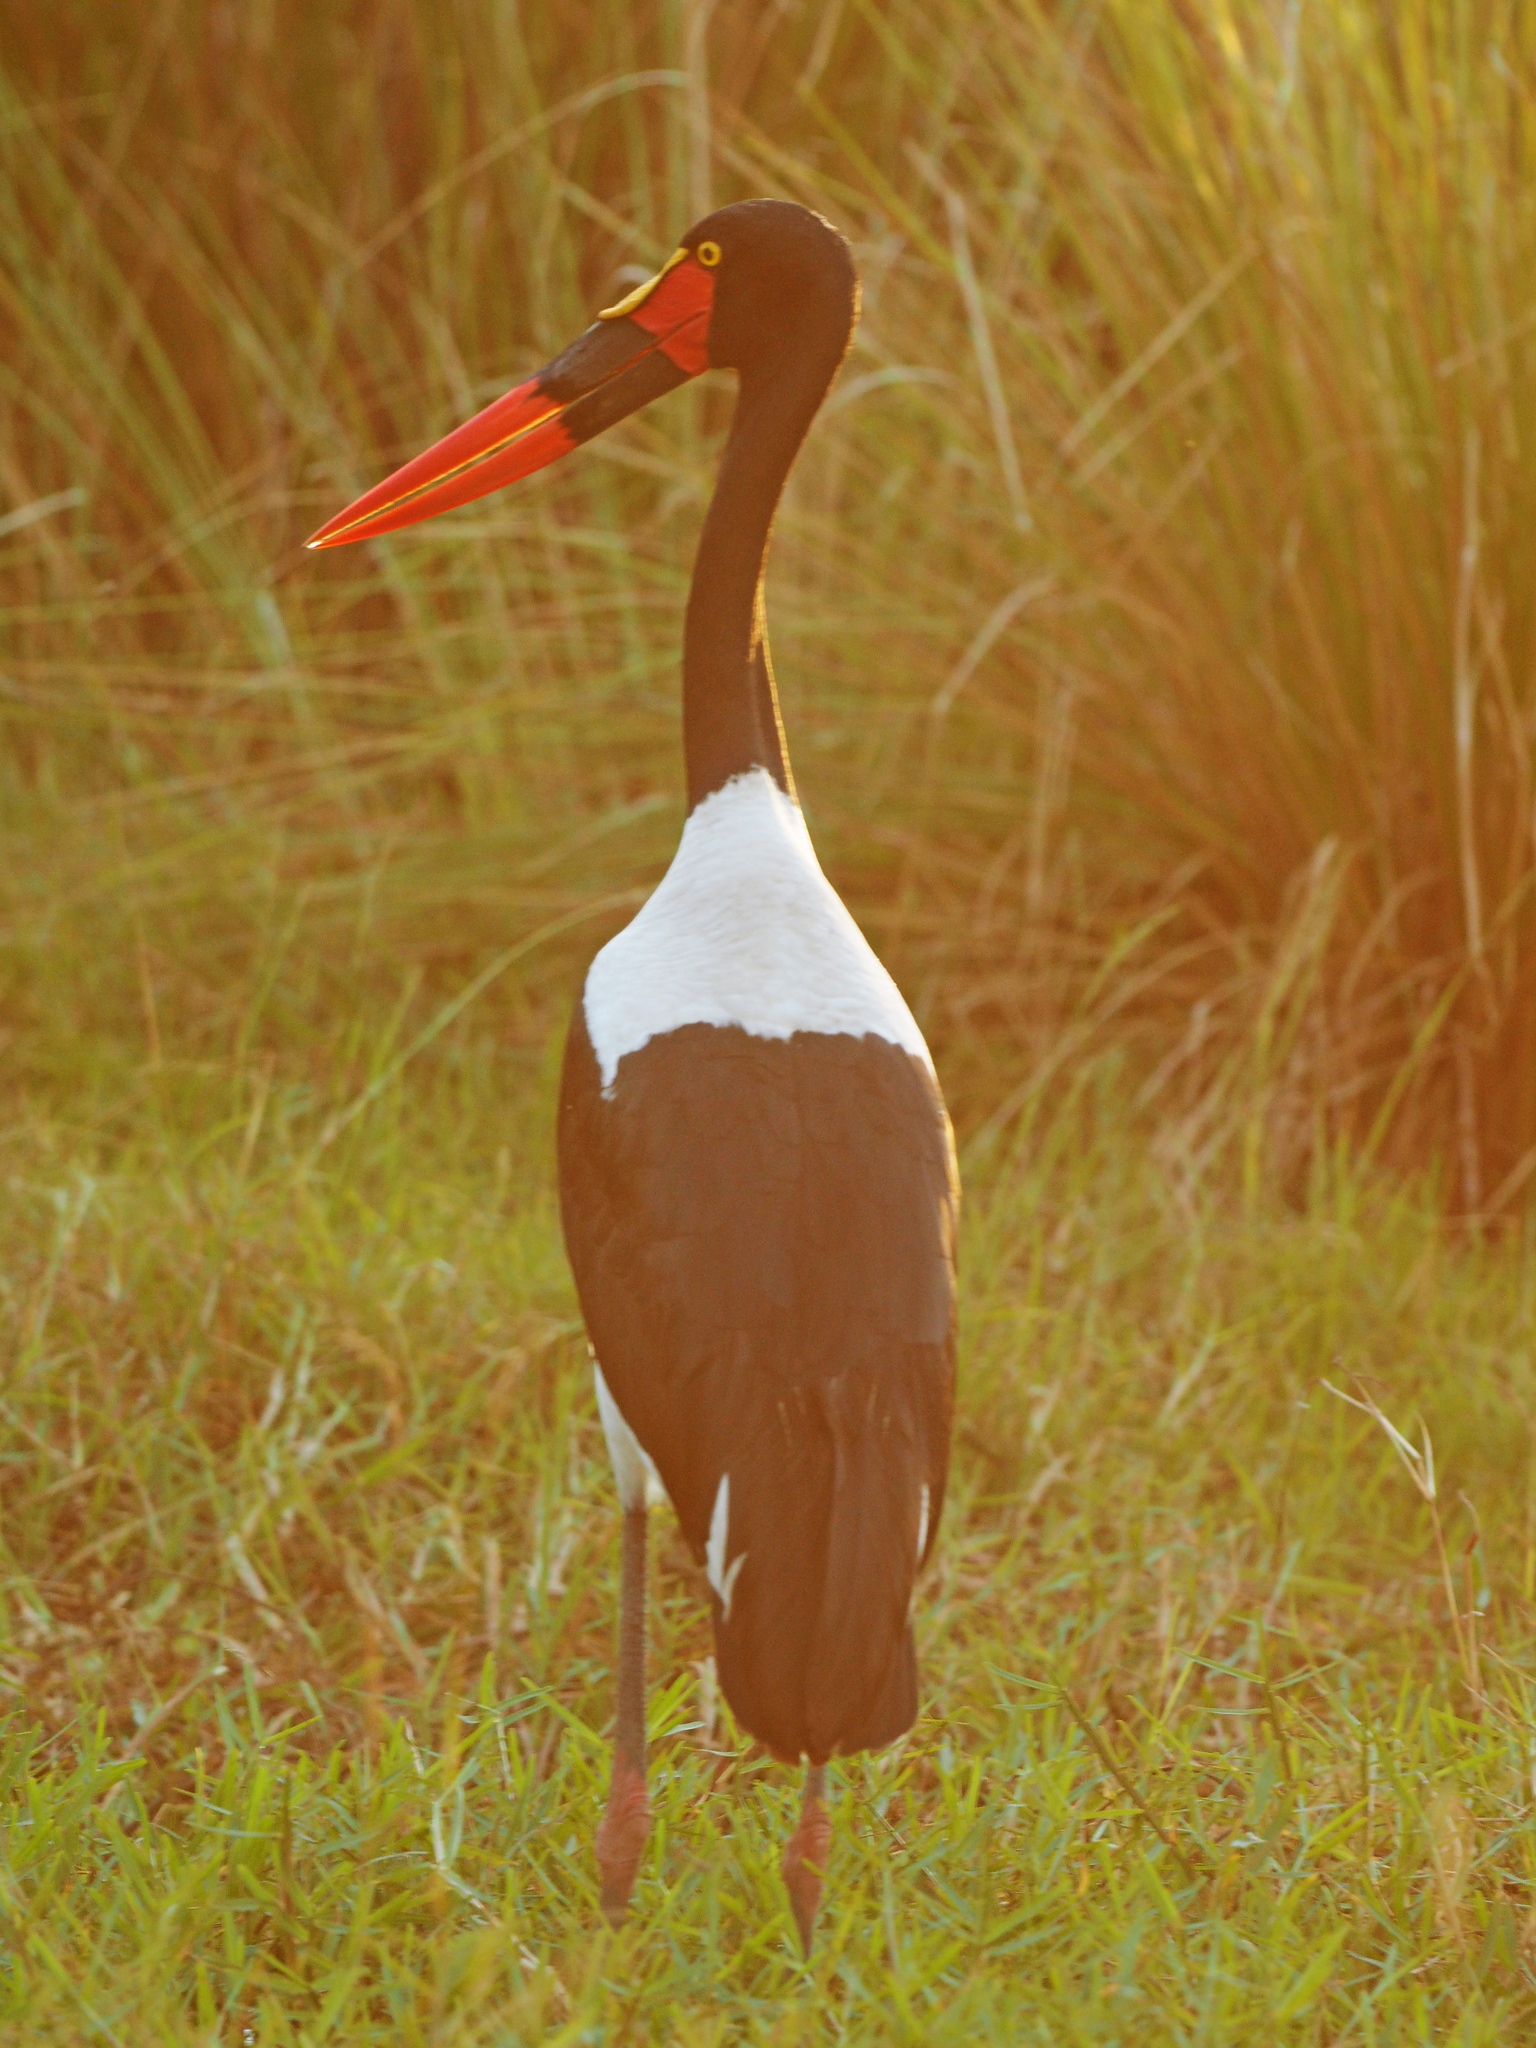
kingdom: Animalia
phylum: Chordata
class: Aves
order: Ciconiiformes
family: Ciconiidae
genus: Ephippiorhynchus
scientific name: Ephippiorhynchus senegalensis
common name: Saddle-billed stork
